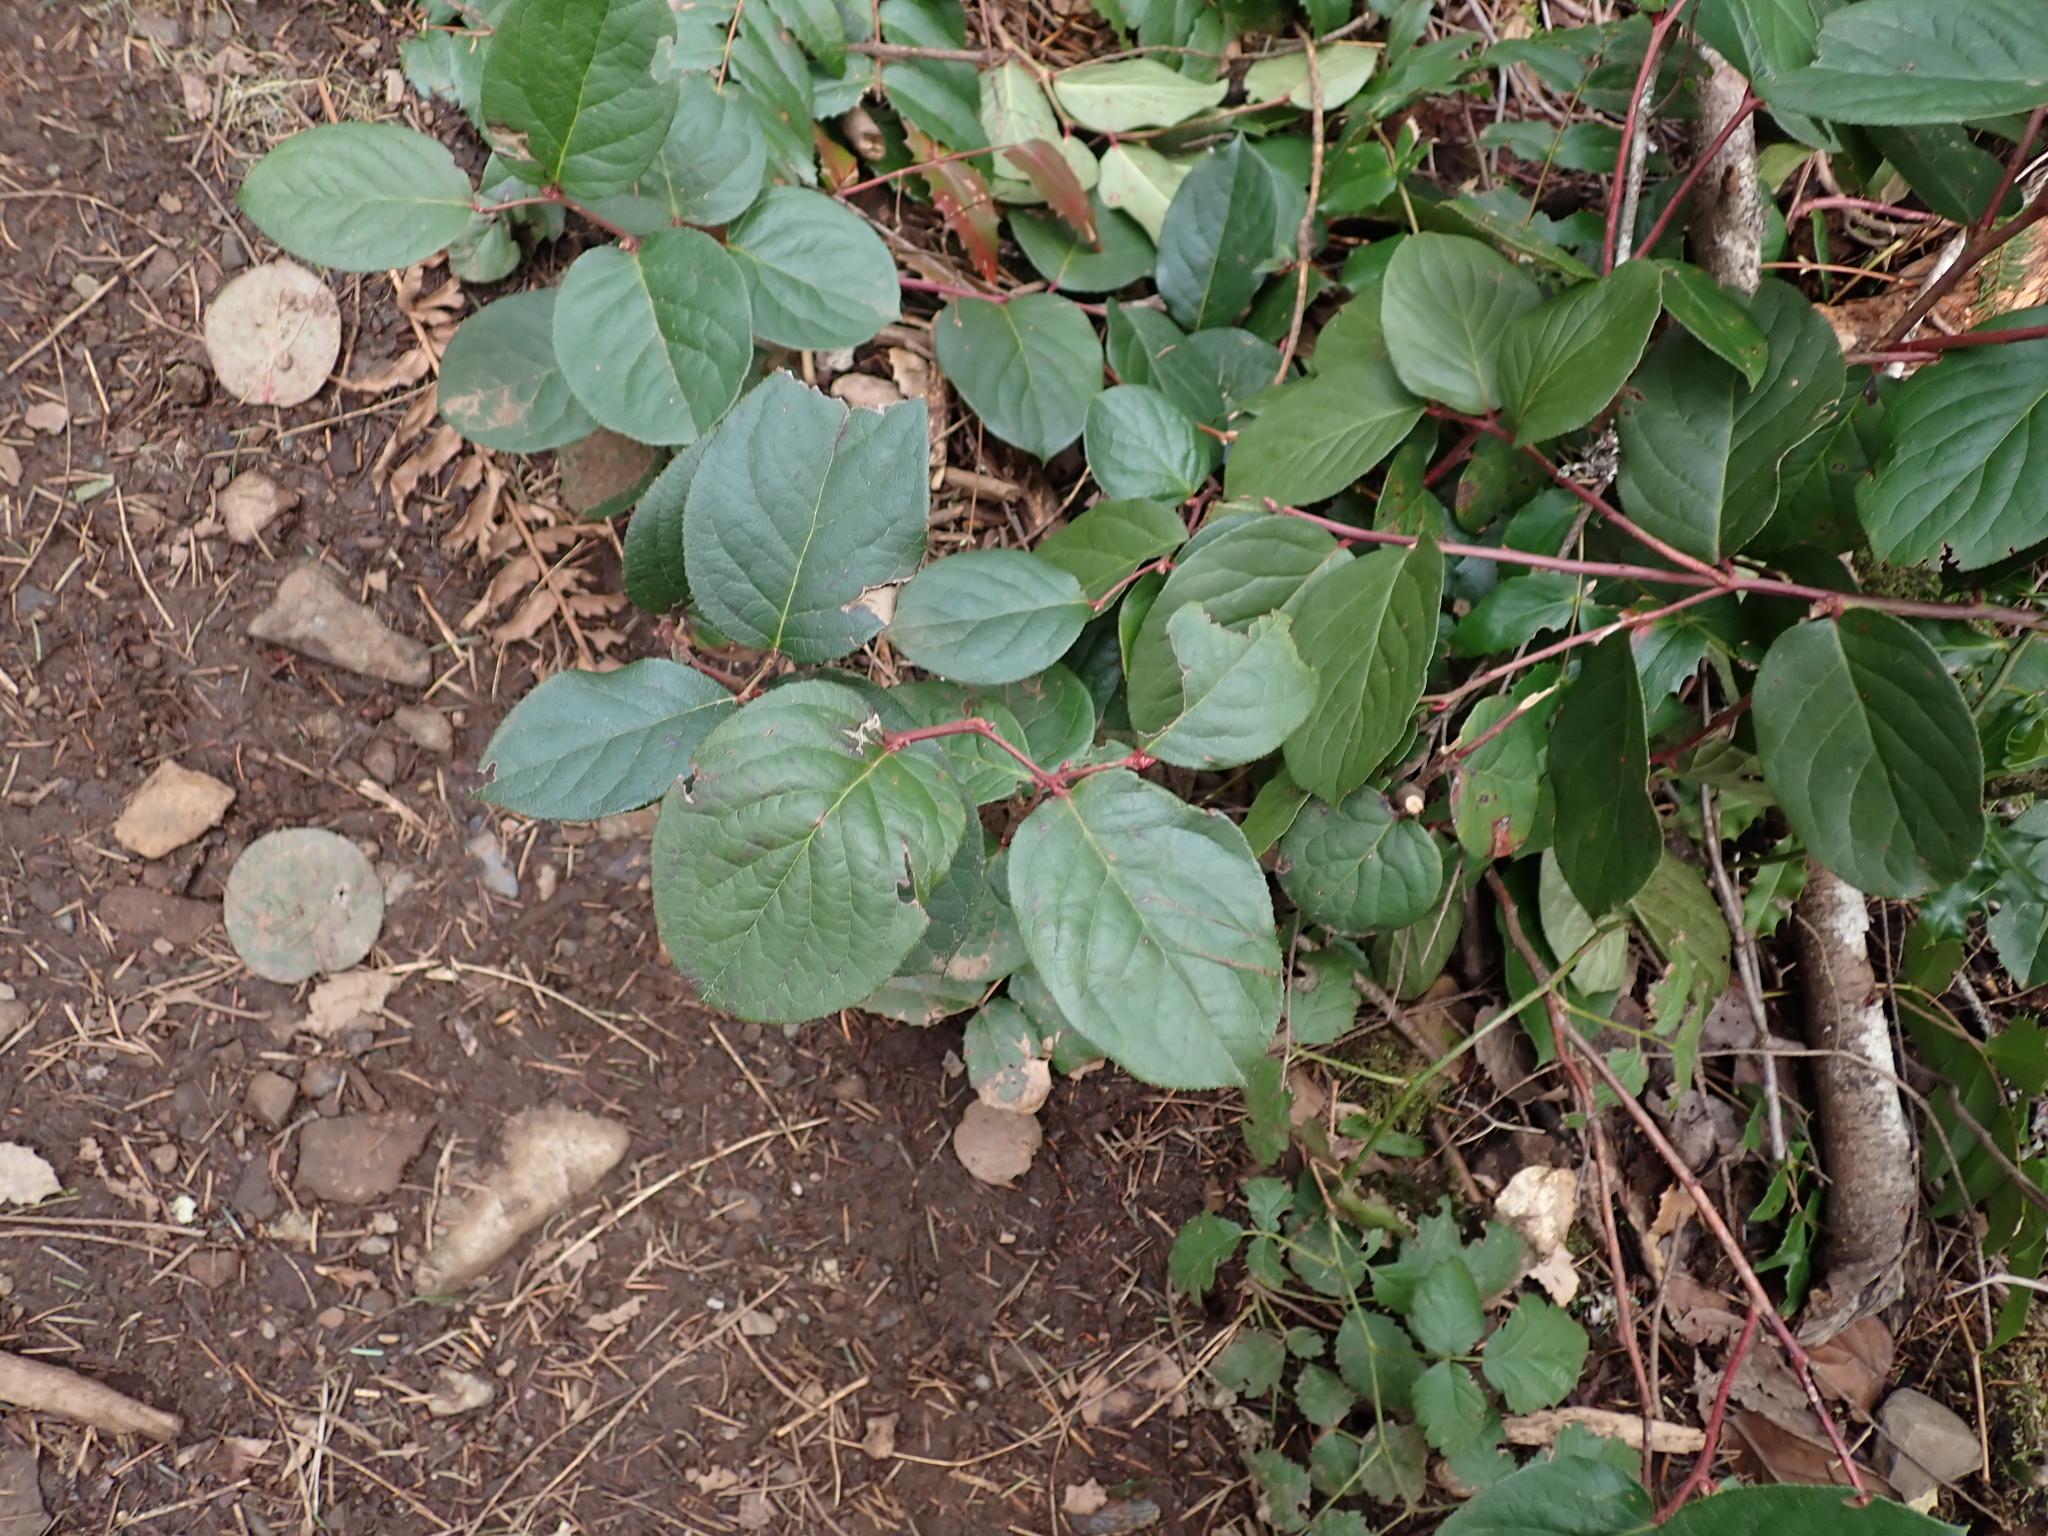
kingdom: Plantae
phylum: Tracheophyta
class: Magnoliopsida
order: Ericales
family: Ericaceae
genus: Gaultheria
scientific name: Gaultheria shallon
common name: Shallon
